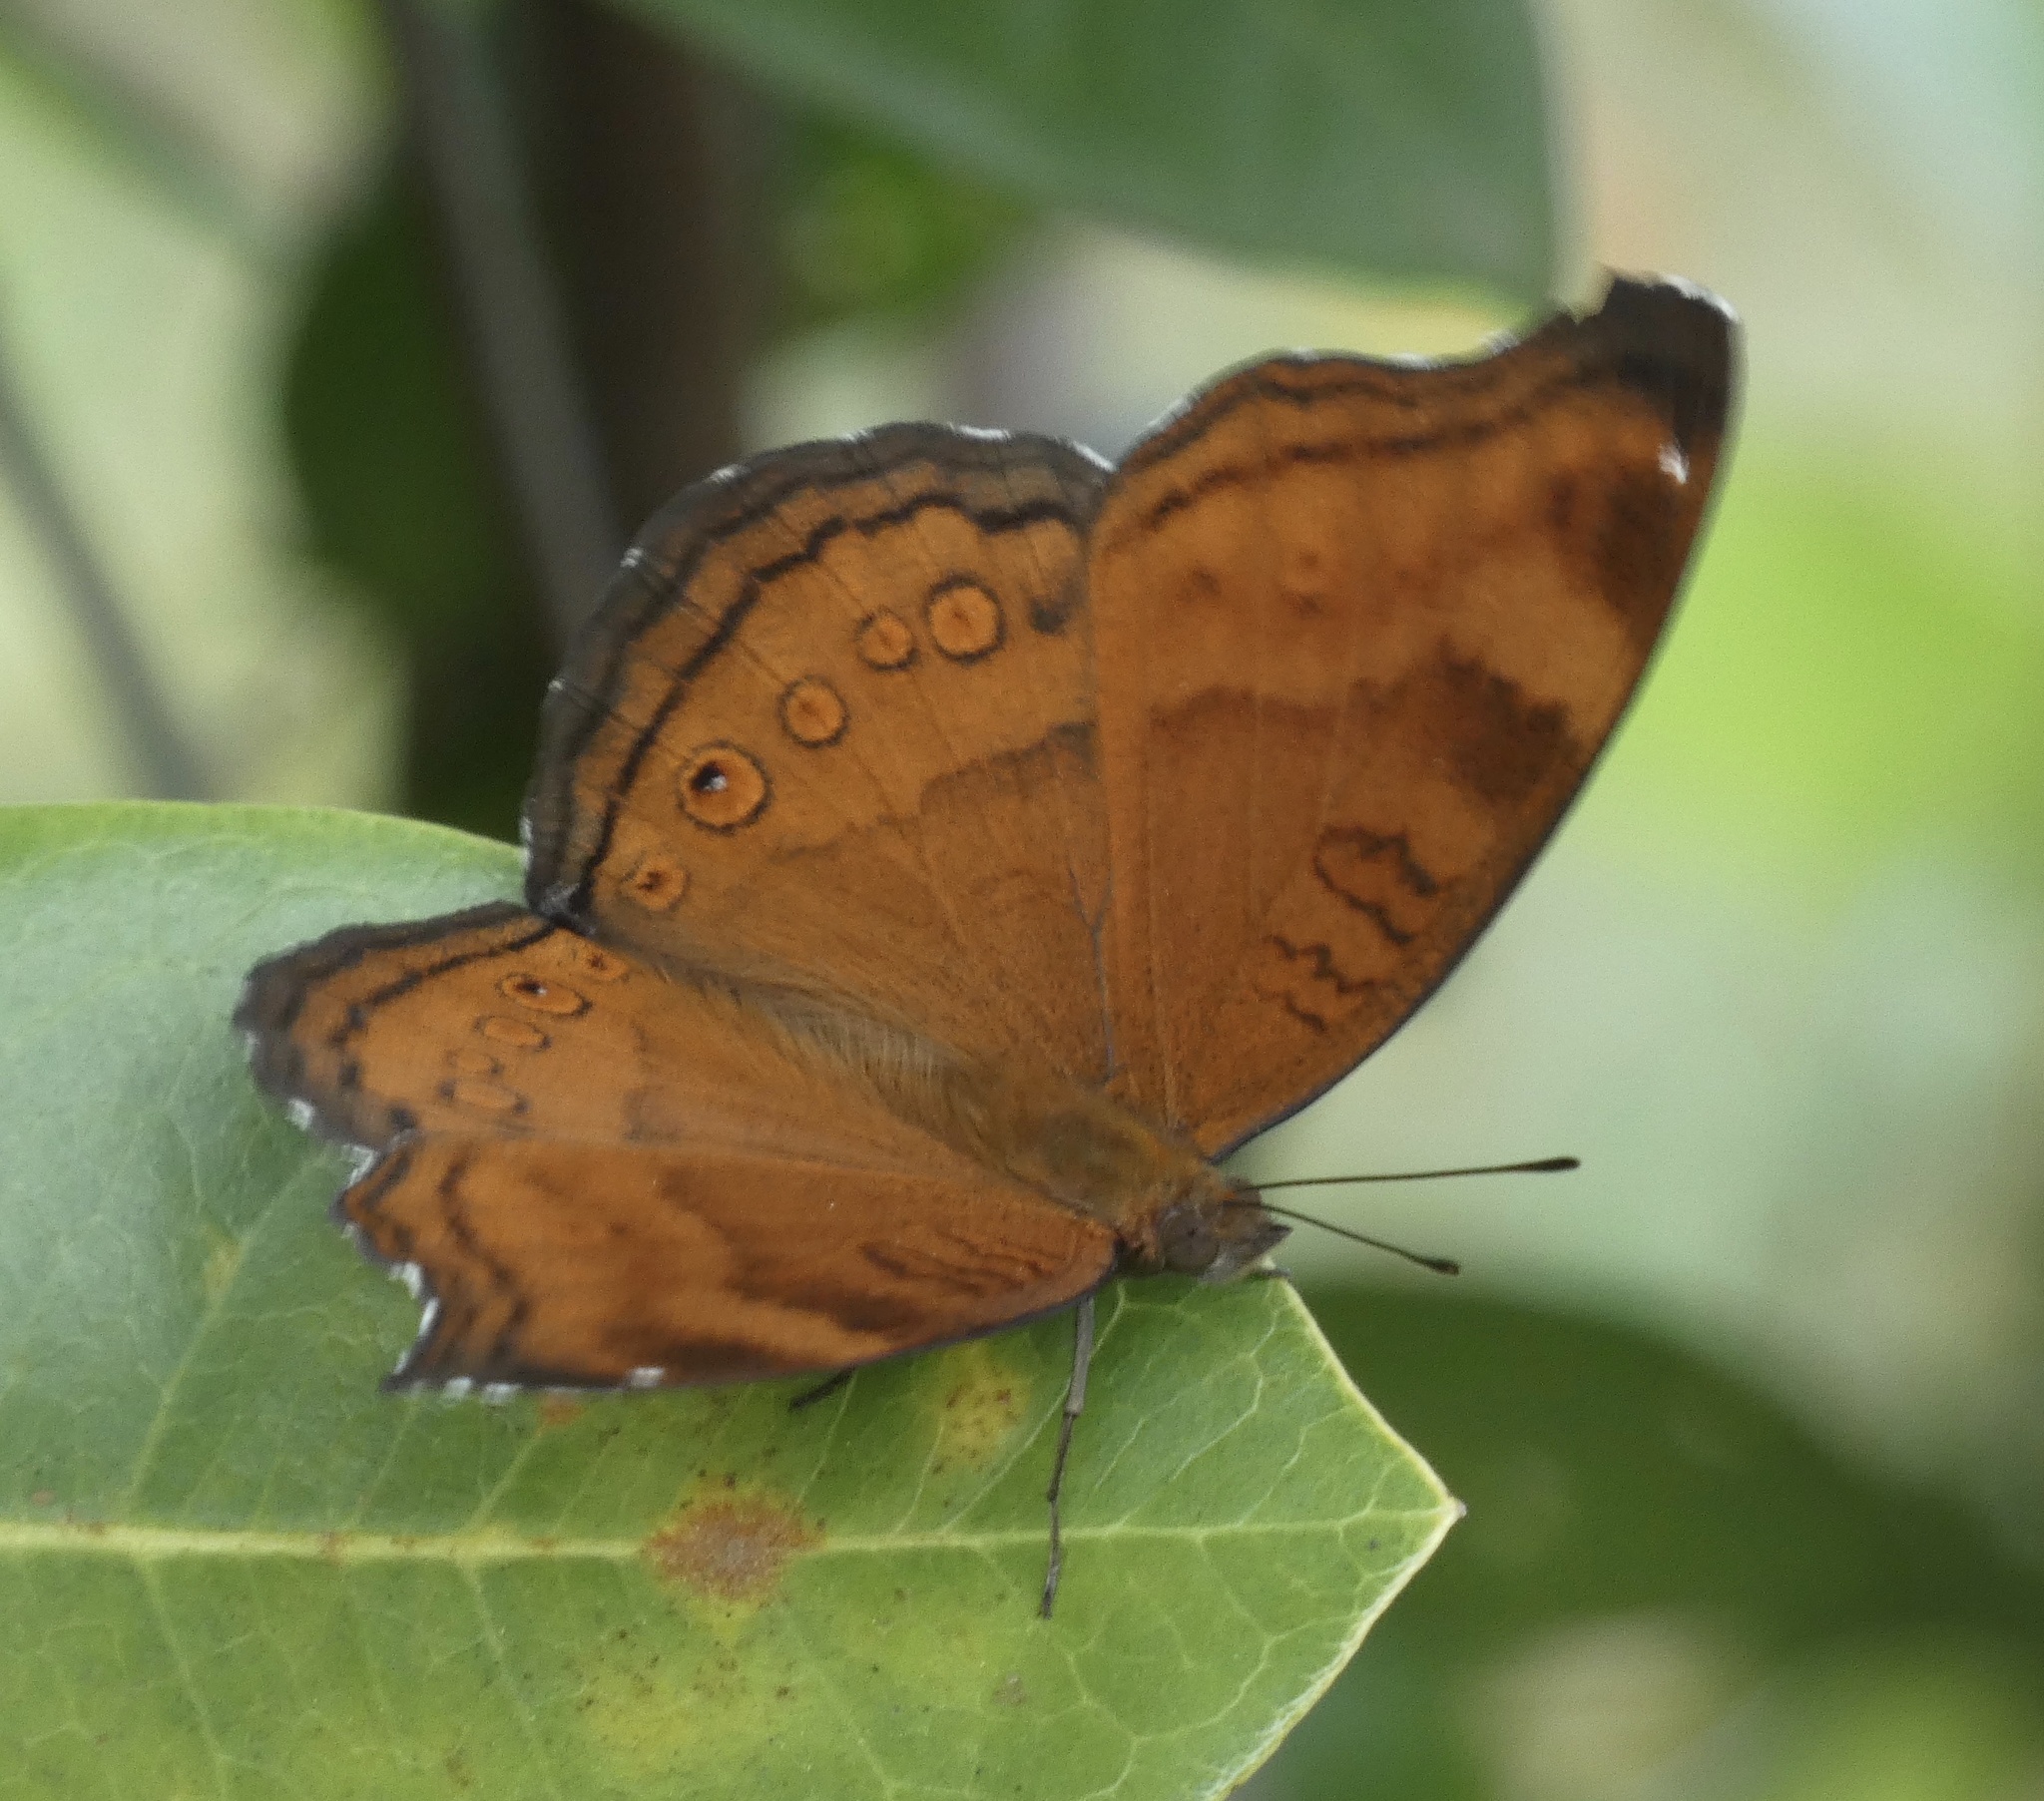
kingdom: Animalia
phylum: Arthropoda
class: Insecta
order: Lepidoptera
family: Nymphalidae
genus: Junonia
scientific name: Junonia hedonia
